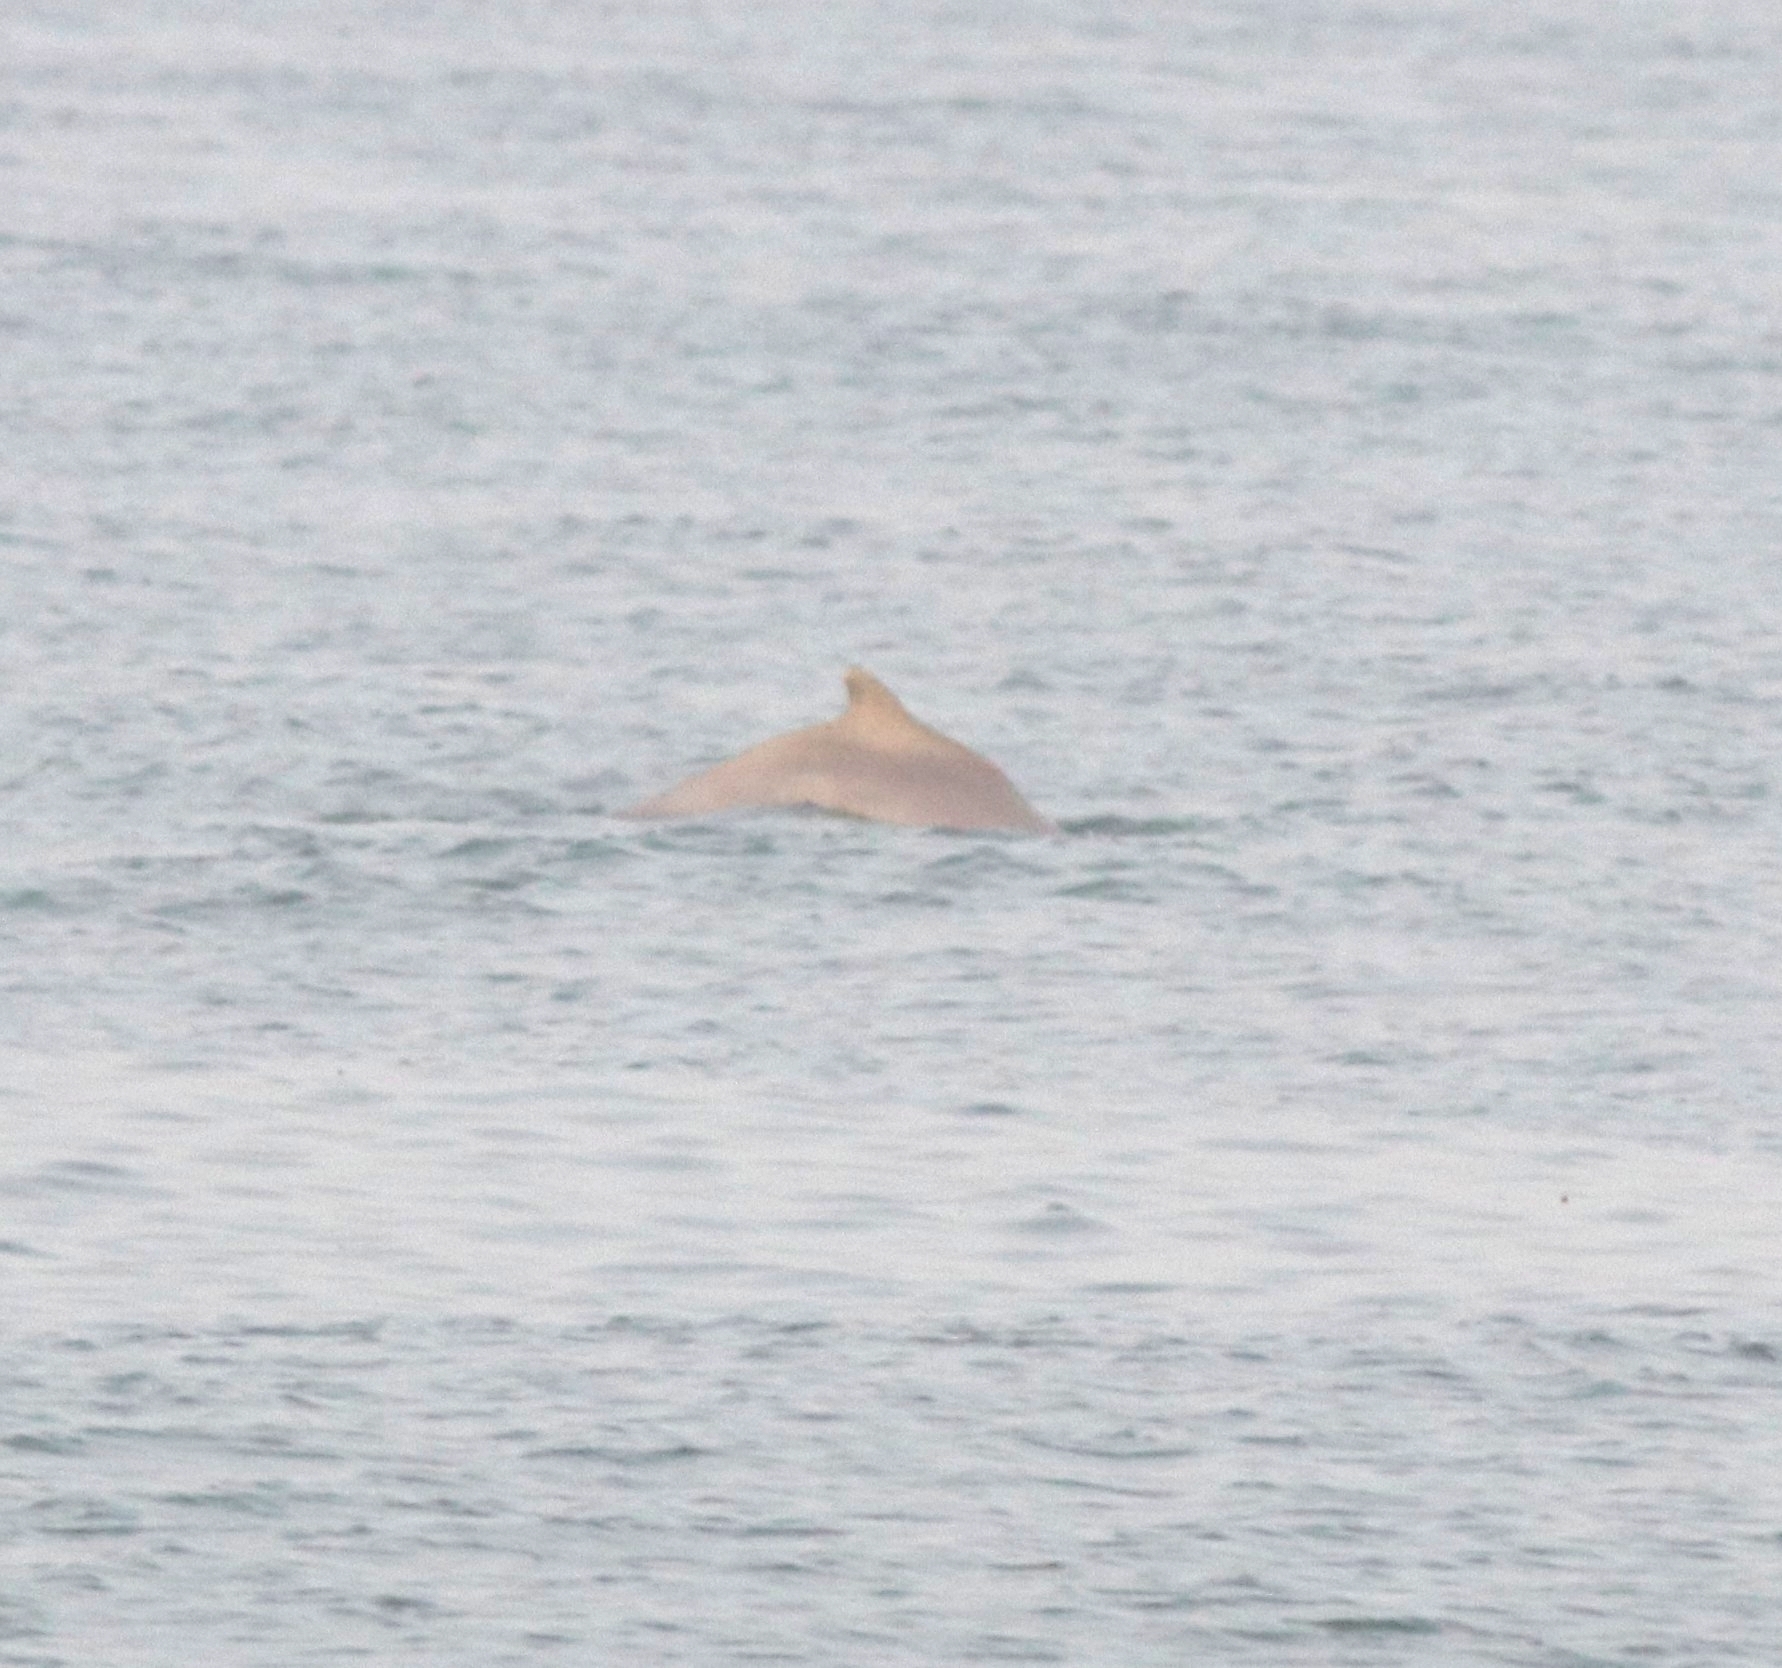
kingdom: Animalia
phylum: Chordata
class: Mammalia
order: Cetacea
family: Delphinidae
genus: Sousa
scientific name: Sousa plumbea
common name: Indian ocean humpback dolphin
